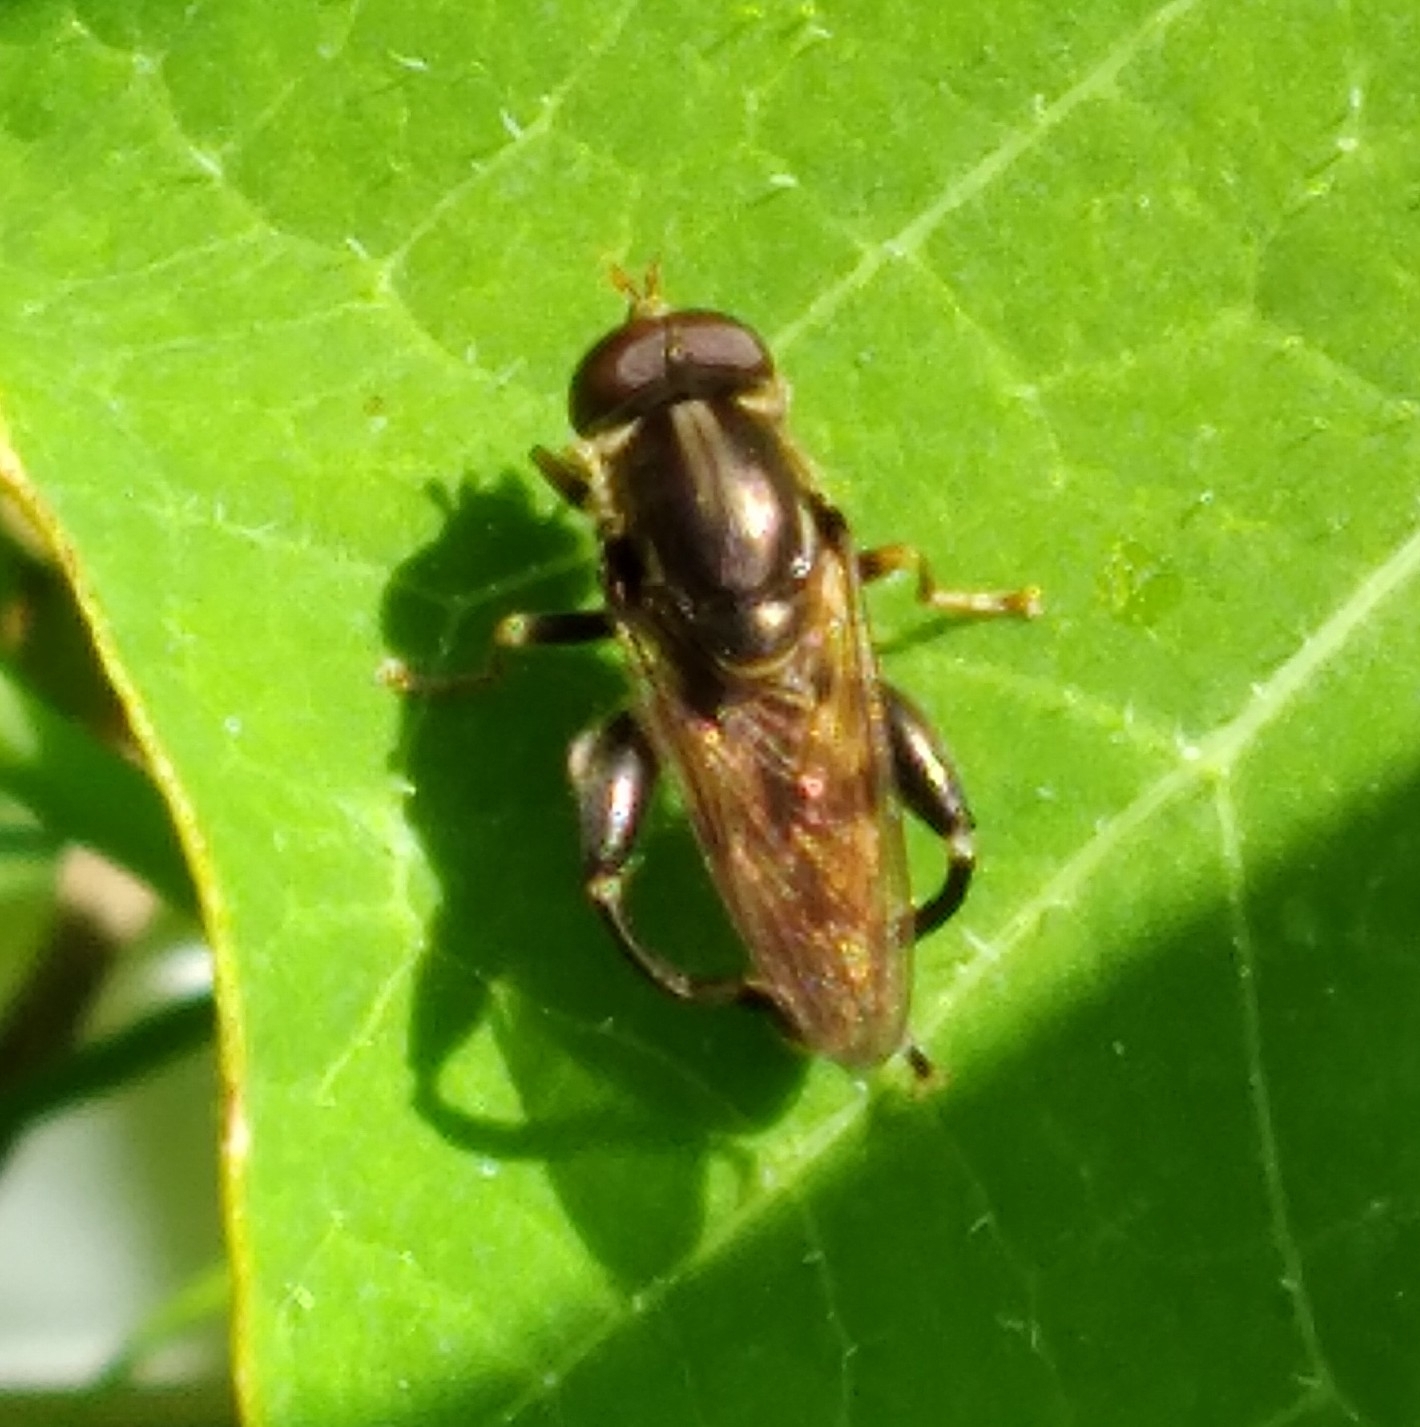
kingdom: Animalia
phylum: Arthropoda
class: Insecta
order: Diptera
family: Syrphidae
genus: Tropidia
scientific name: Tropidia quadrata
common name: Common thick-legged fly
